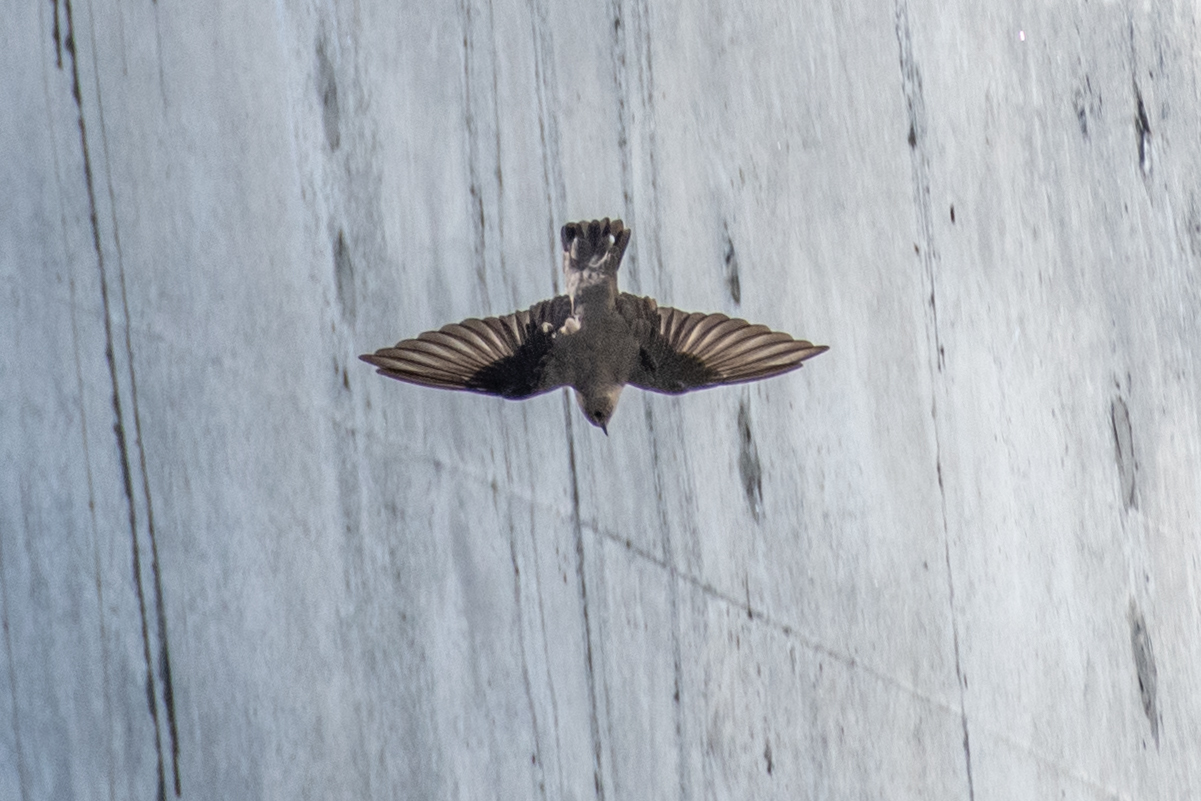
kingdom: Animalia
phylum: Chordata
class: Aves
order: Passeriformes
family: Hirundinidae
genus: Ptyonoprogne
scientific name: Ptyonoprogne rupestris
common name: Eurasian crag martin
